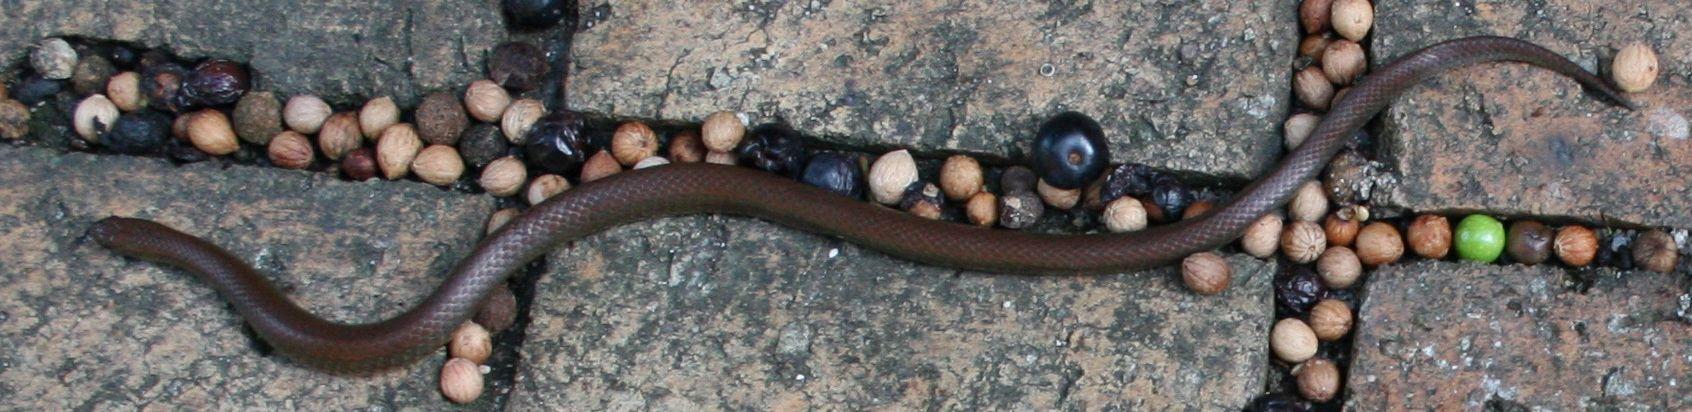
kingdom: Animalia
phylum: Chordata
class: Squamata
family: Pseudoxyrhophiidae
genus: Duberria
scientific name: Duberria lutrix
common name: Common slug eater
